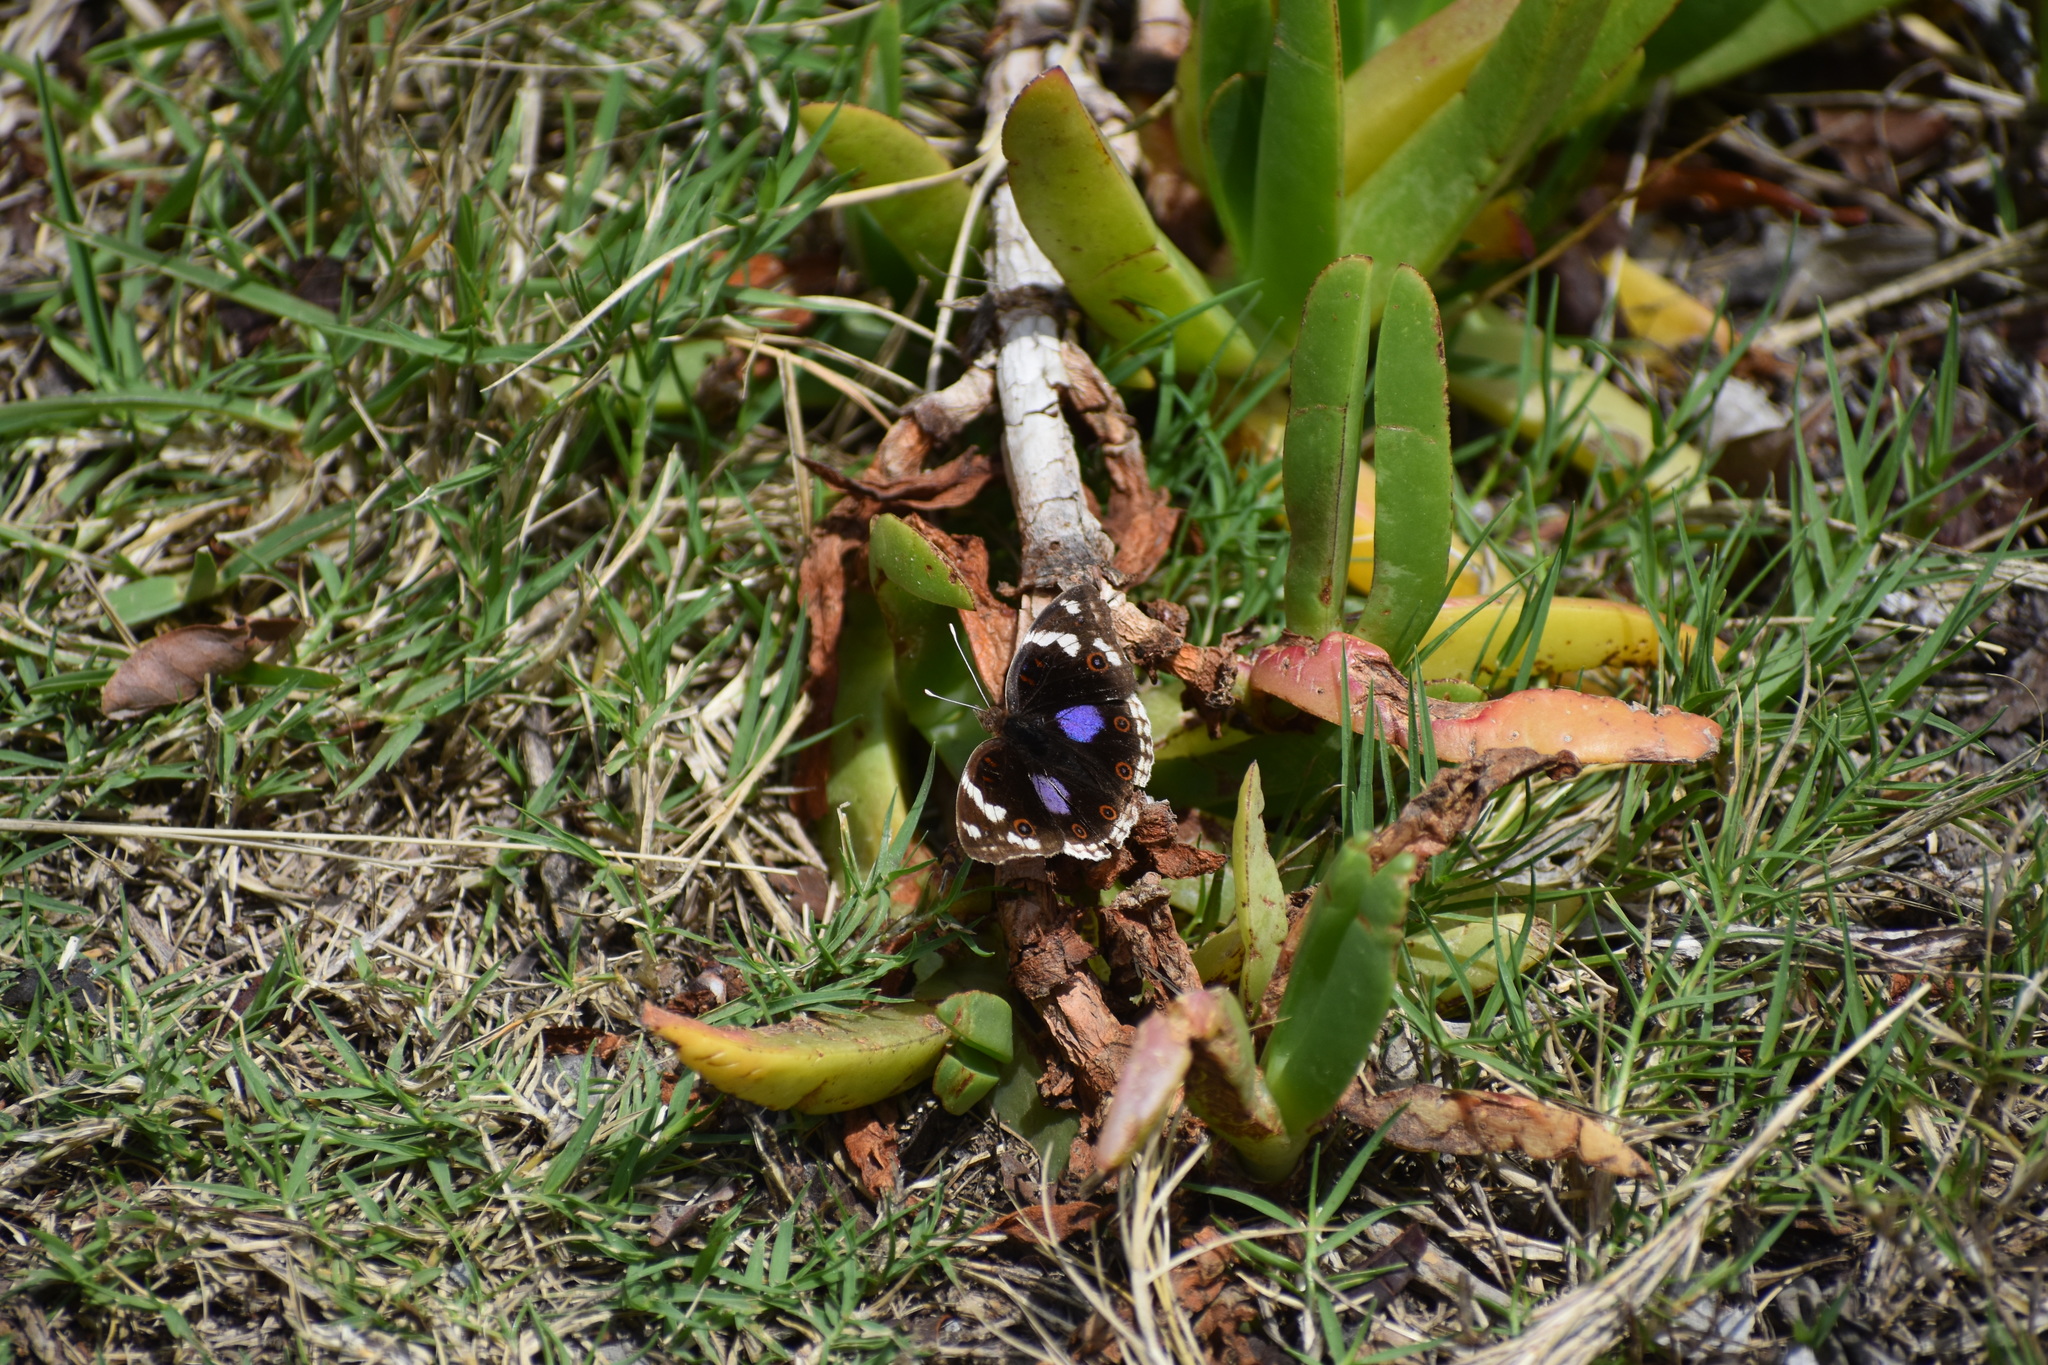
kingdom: Animalia
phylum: Arthropoda
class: Insecta
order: Lepidoptera
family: Nymphalidae
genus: Junonia
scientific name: Junonia oenone
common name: Dark blue pansy
